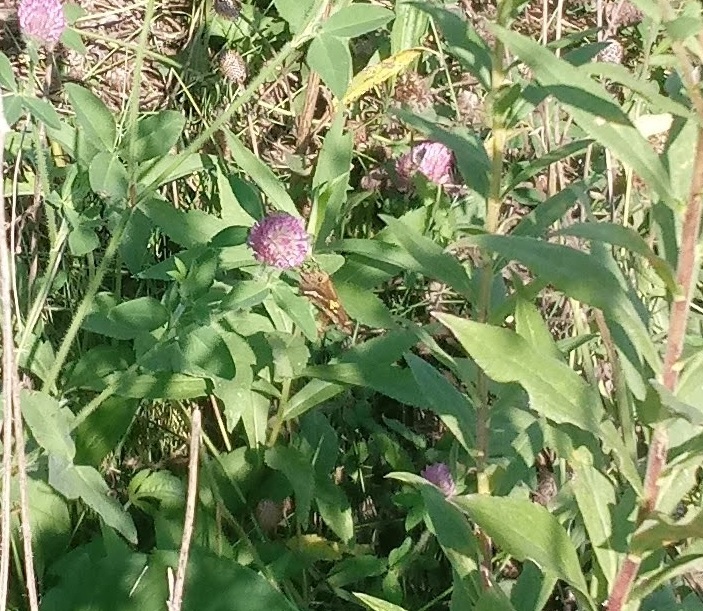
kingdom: Animalia
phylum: Arthropoda
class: Insecta
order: Lepidoptera
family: Hesperiidae
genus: Epargyreus
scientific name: Epargyreus clarus
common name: Silver-spotted skipper
